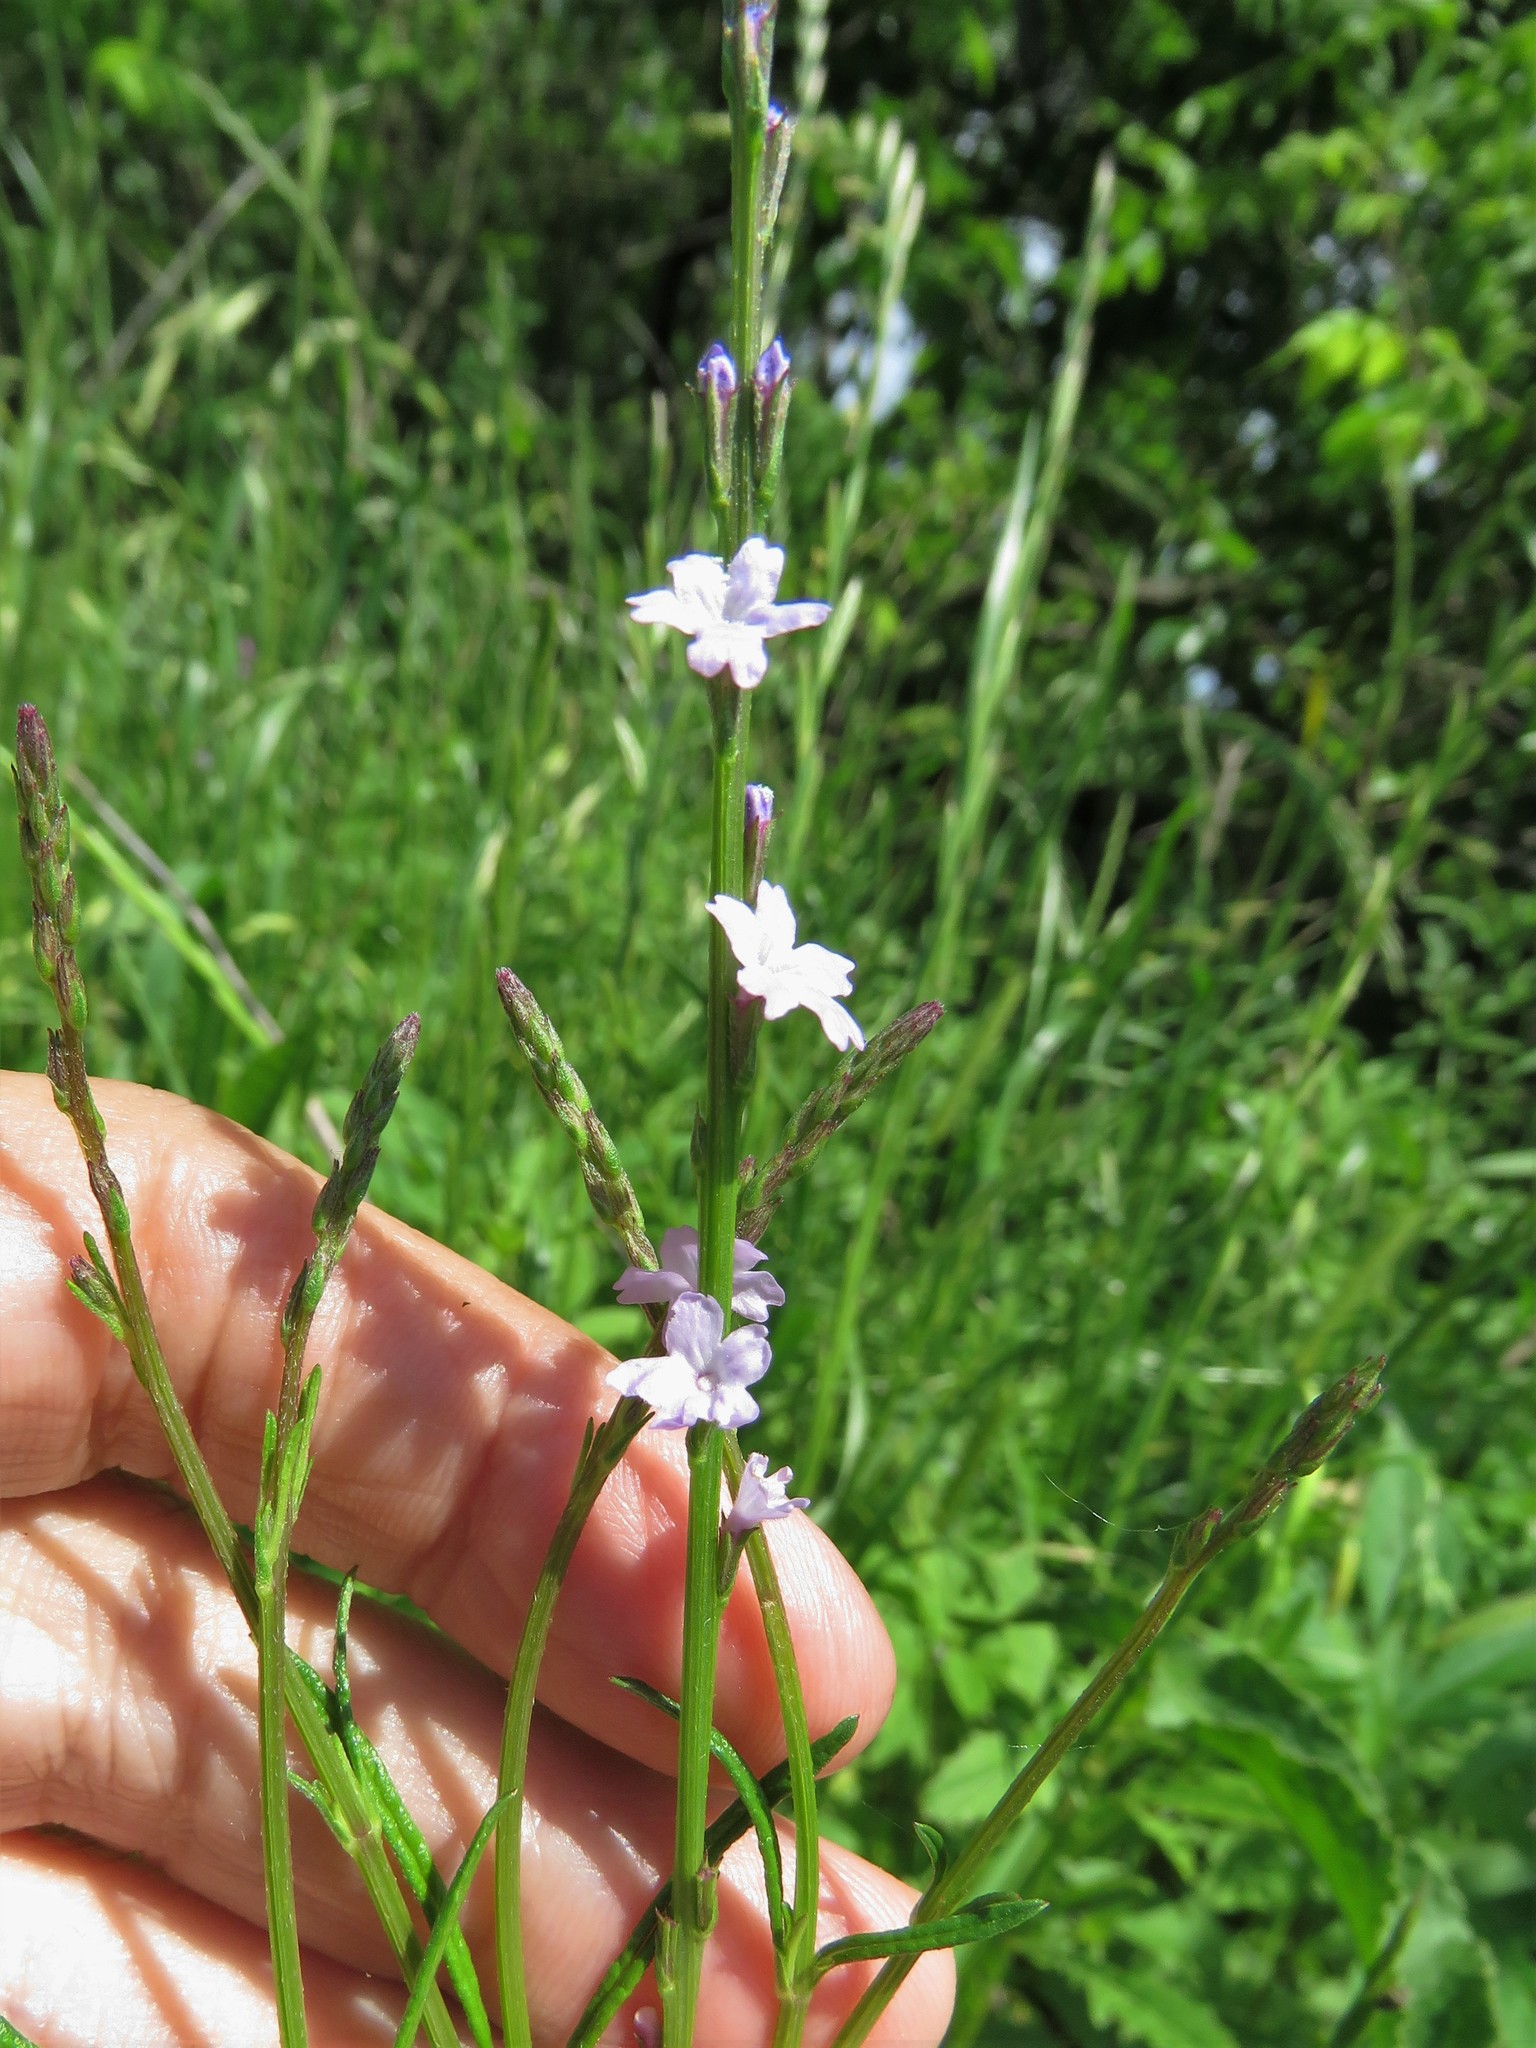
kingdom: Plantae
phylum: Tracheophyta
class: Magnoliopsida
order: Lamiales
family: Verbenaceae
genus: Verbena
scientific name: Verbena halei
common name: Texas vervain
